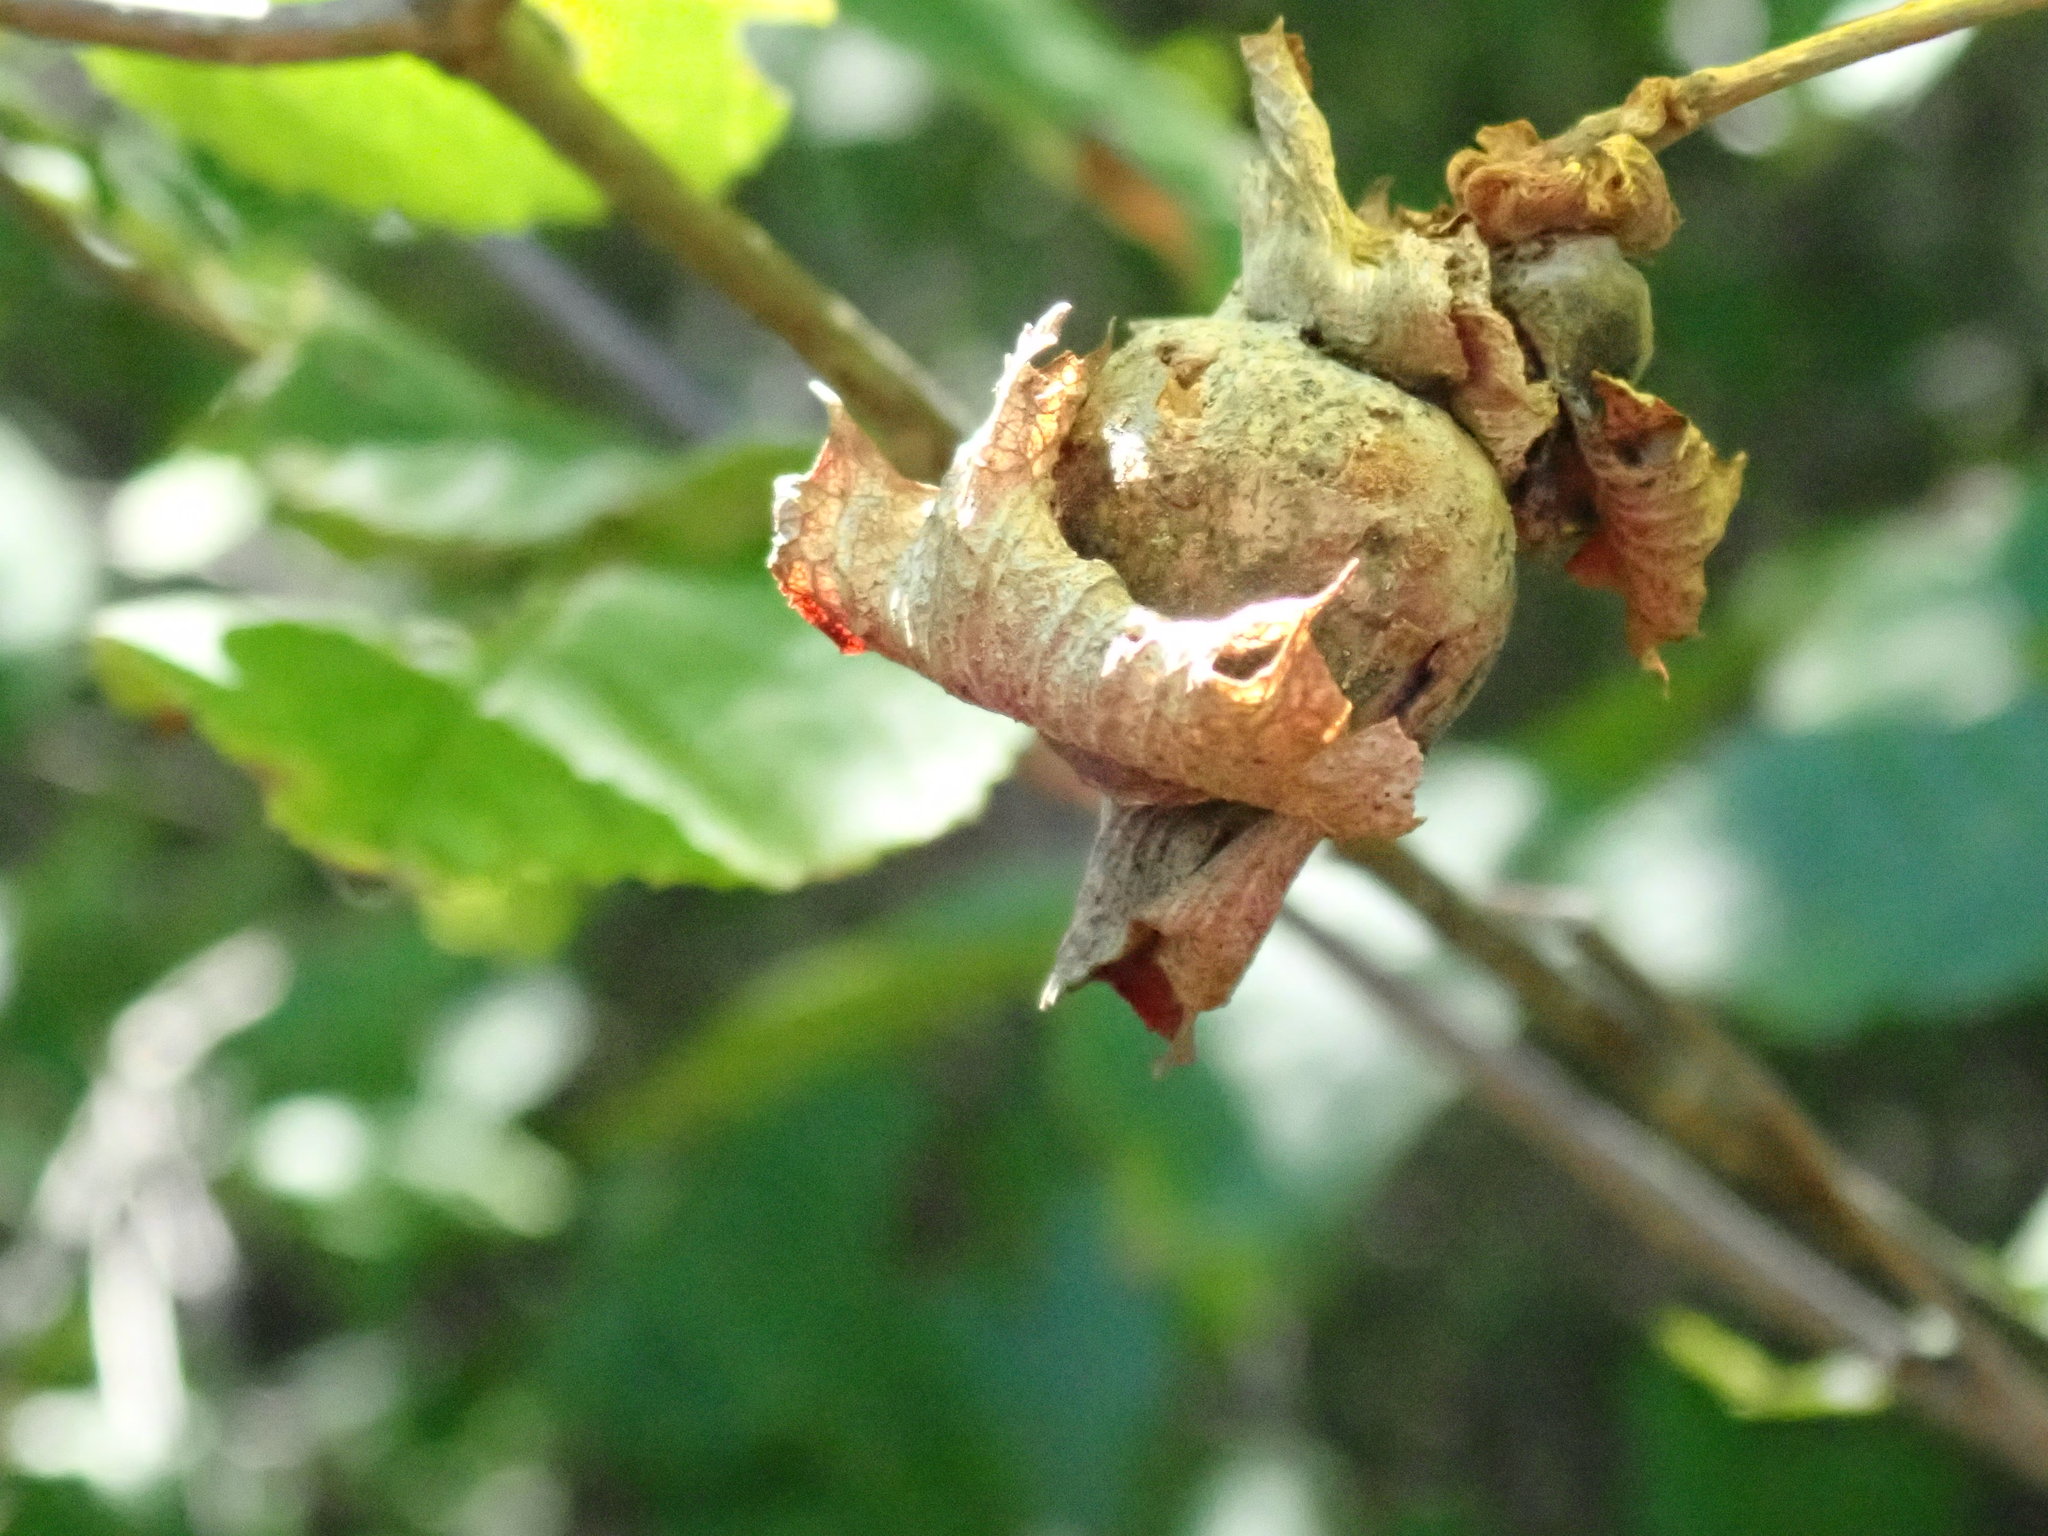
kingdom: Plantae
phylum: Tracheophyta
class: Magnoliopsida
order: Fagales
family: Betulaceae
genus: Corylus
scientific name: Corylus americana
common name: American hazel
